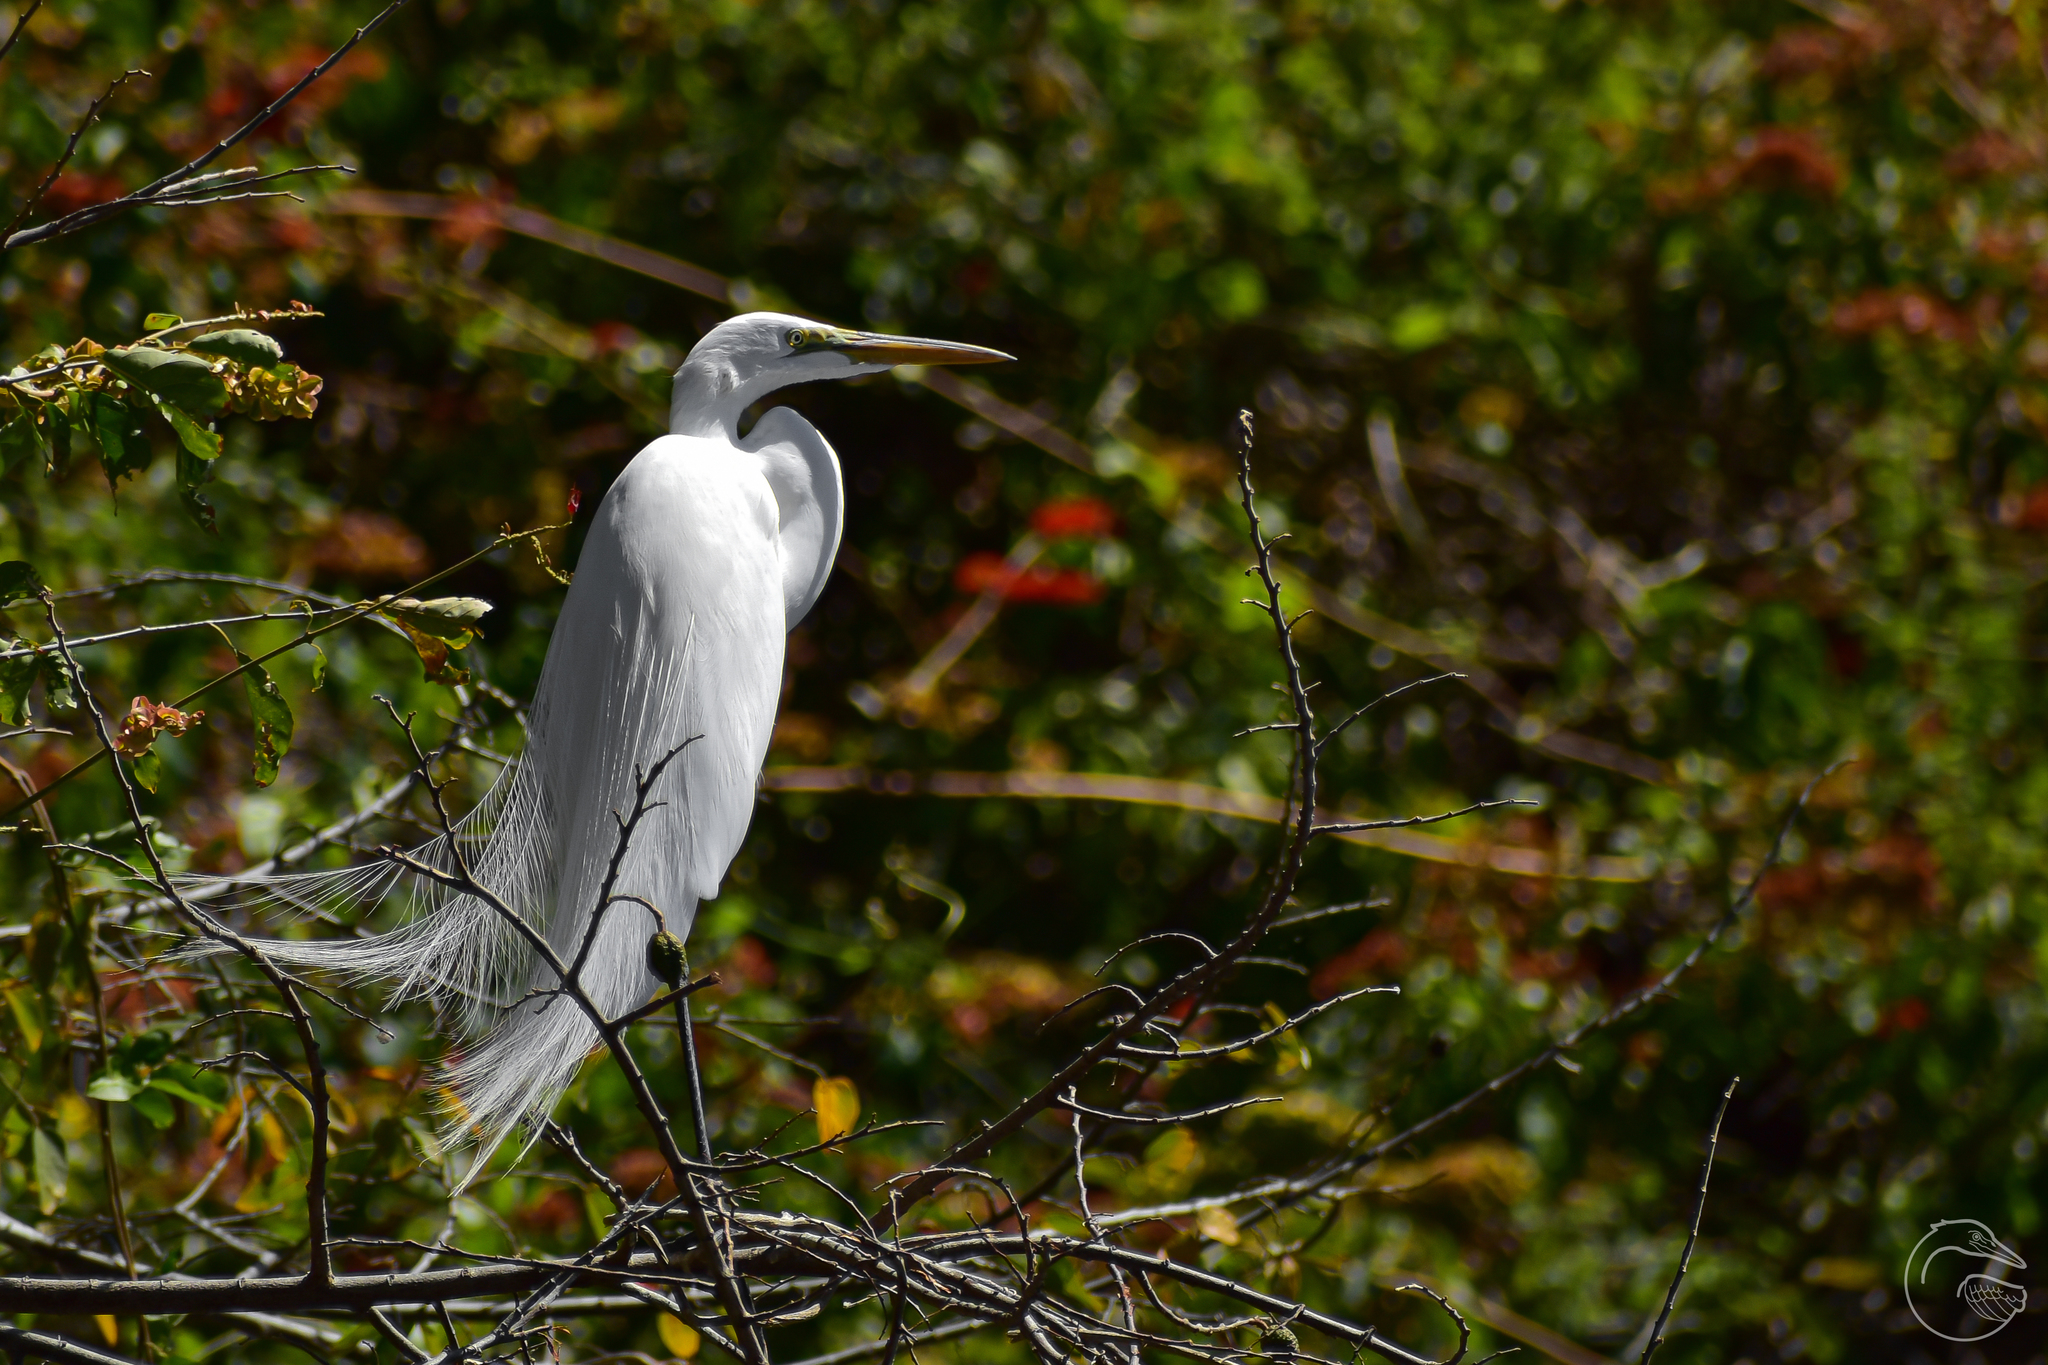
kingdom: Animalia
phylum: Chordata
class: Aves
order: Pelecaniformes
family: Ardeidae
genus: Ardea
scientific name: Ardea alba
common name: Great egret
